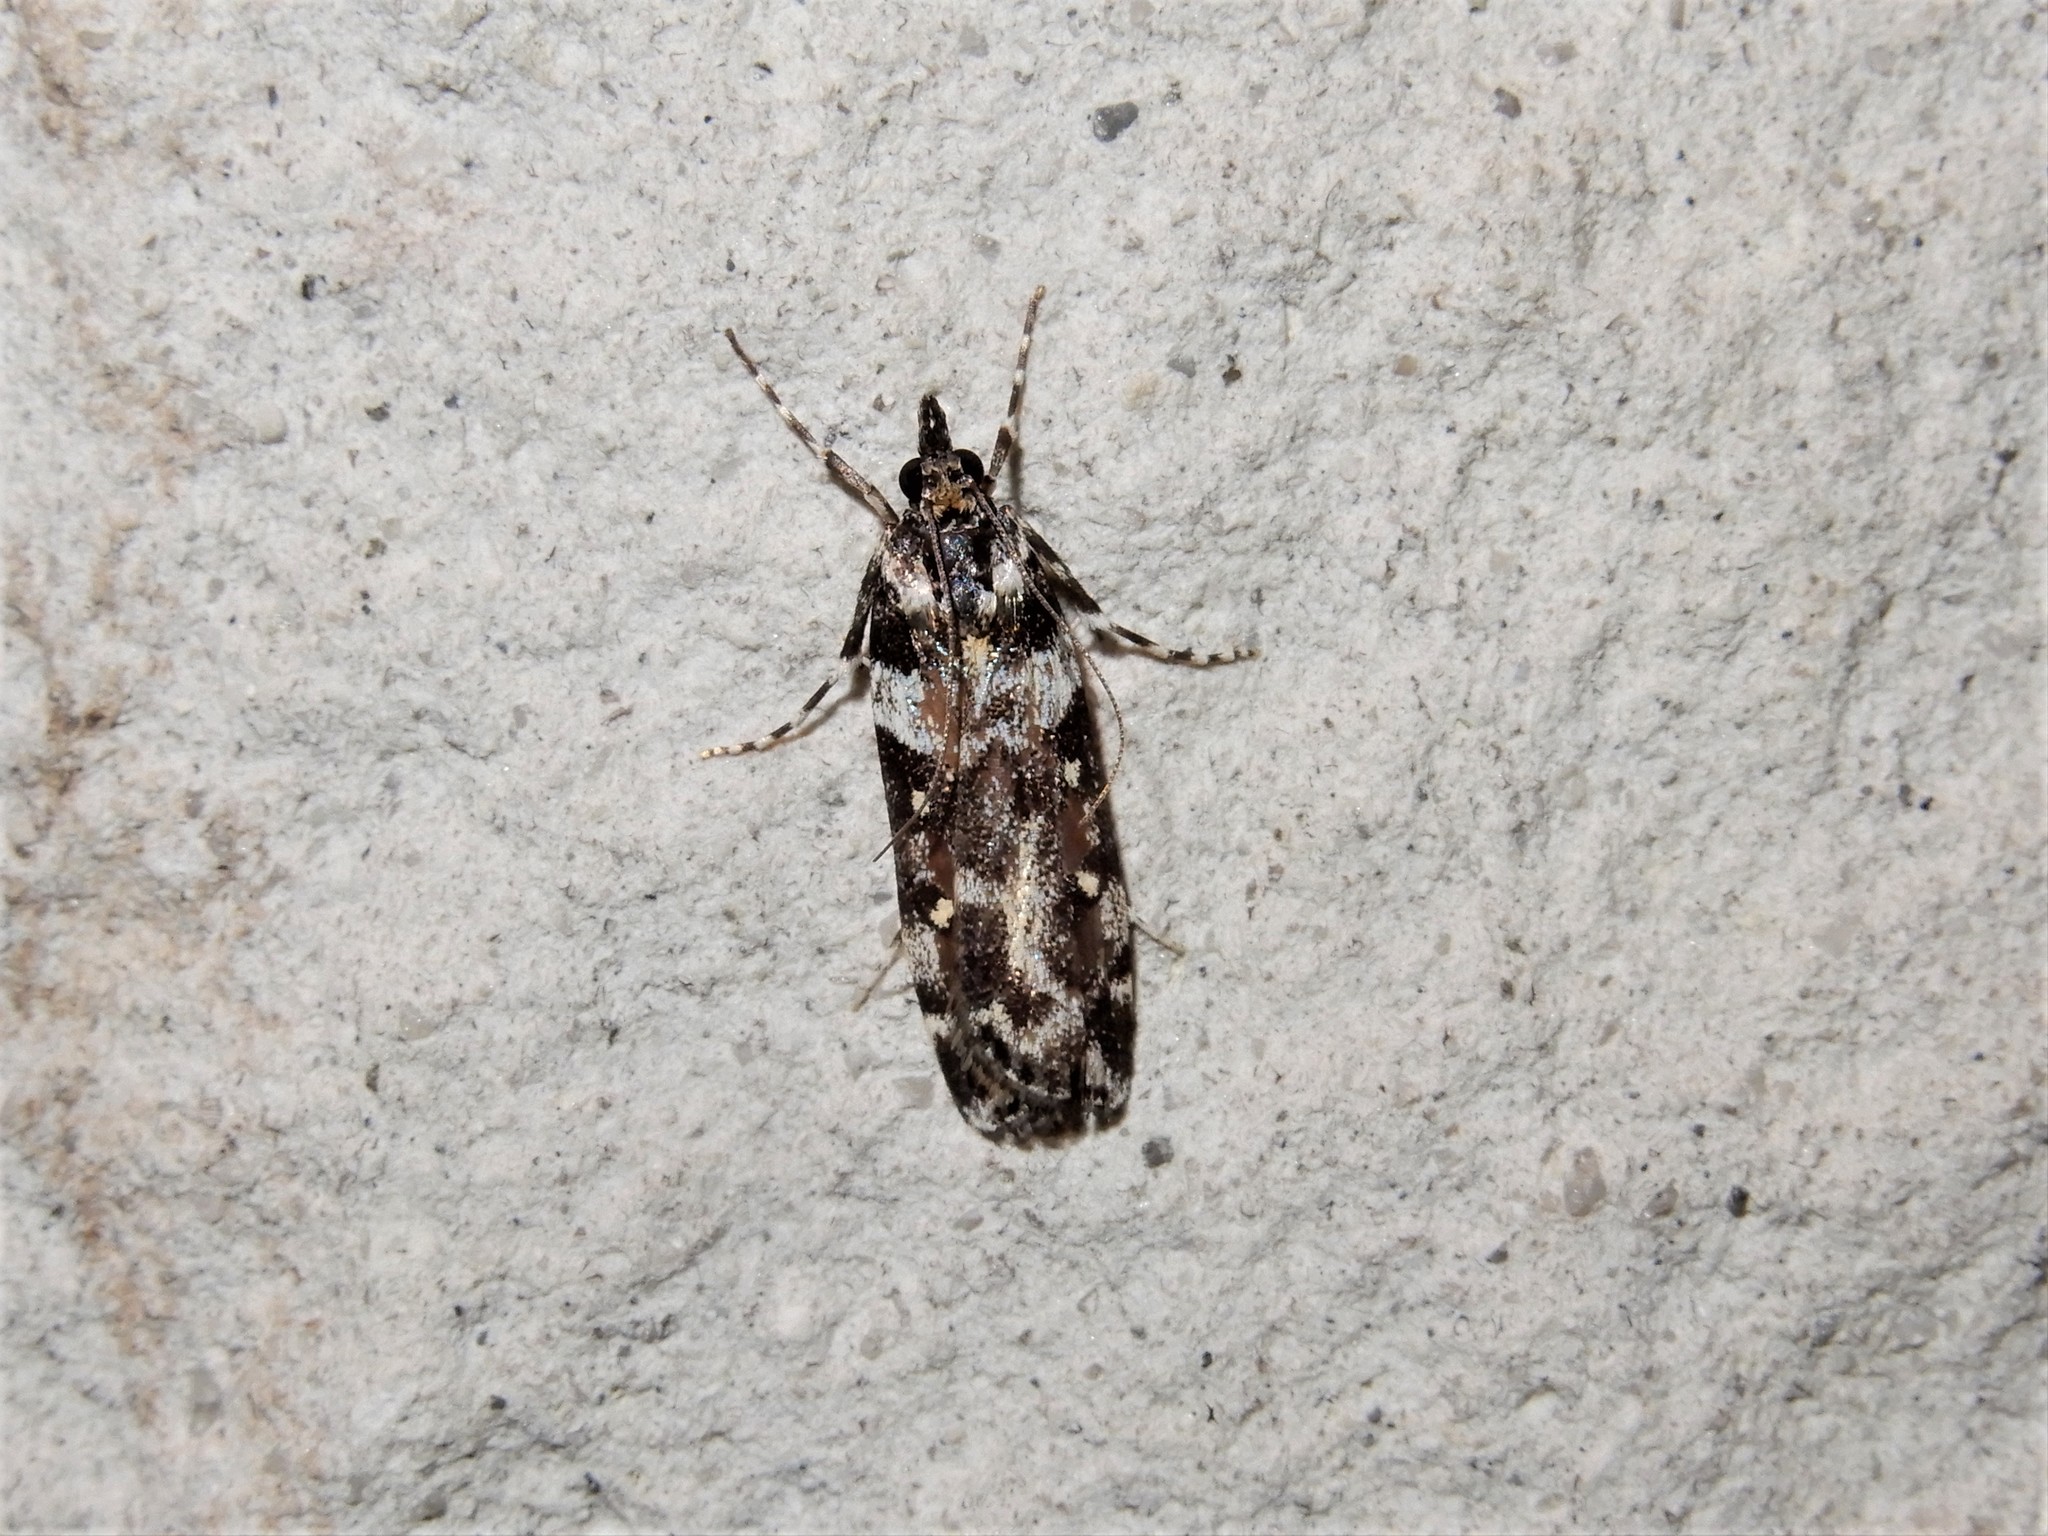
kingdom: Animalia
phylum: Arthropoda
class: Insecta
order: Lepidoptera
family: Crambidae
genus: Eudonia
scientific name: Eudonia diphtheralis
